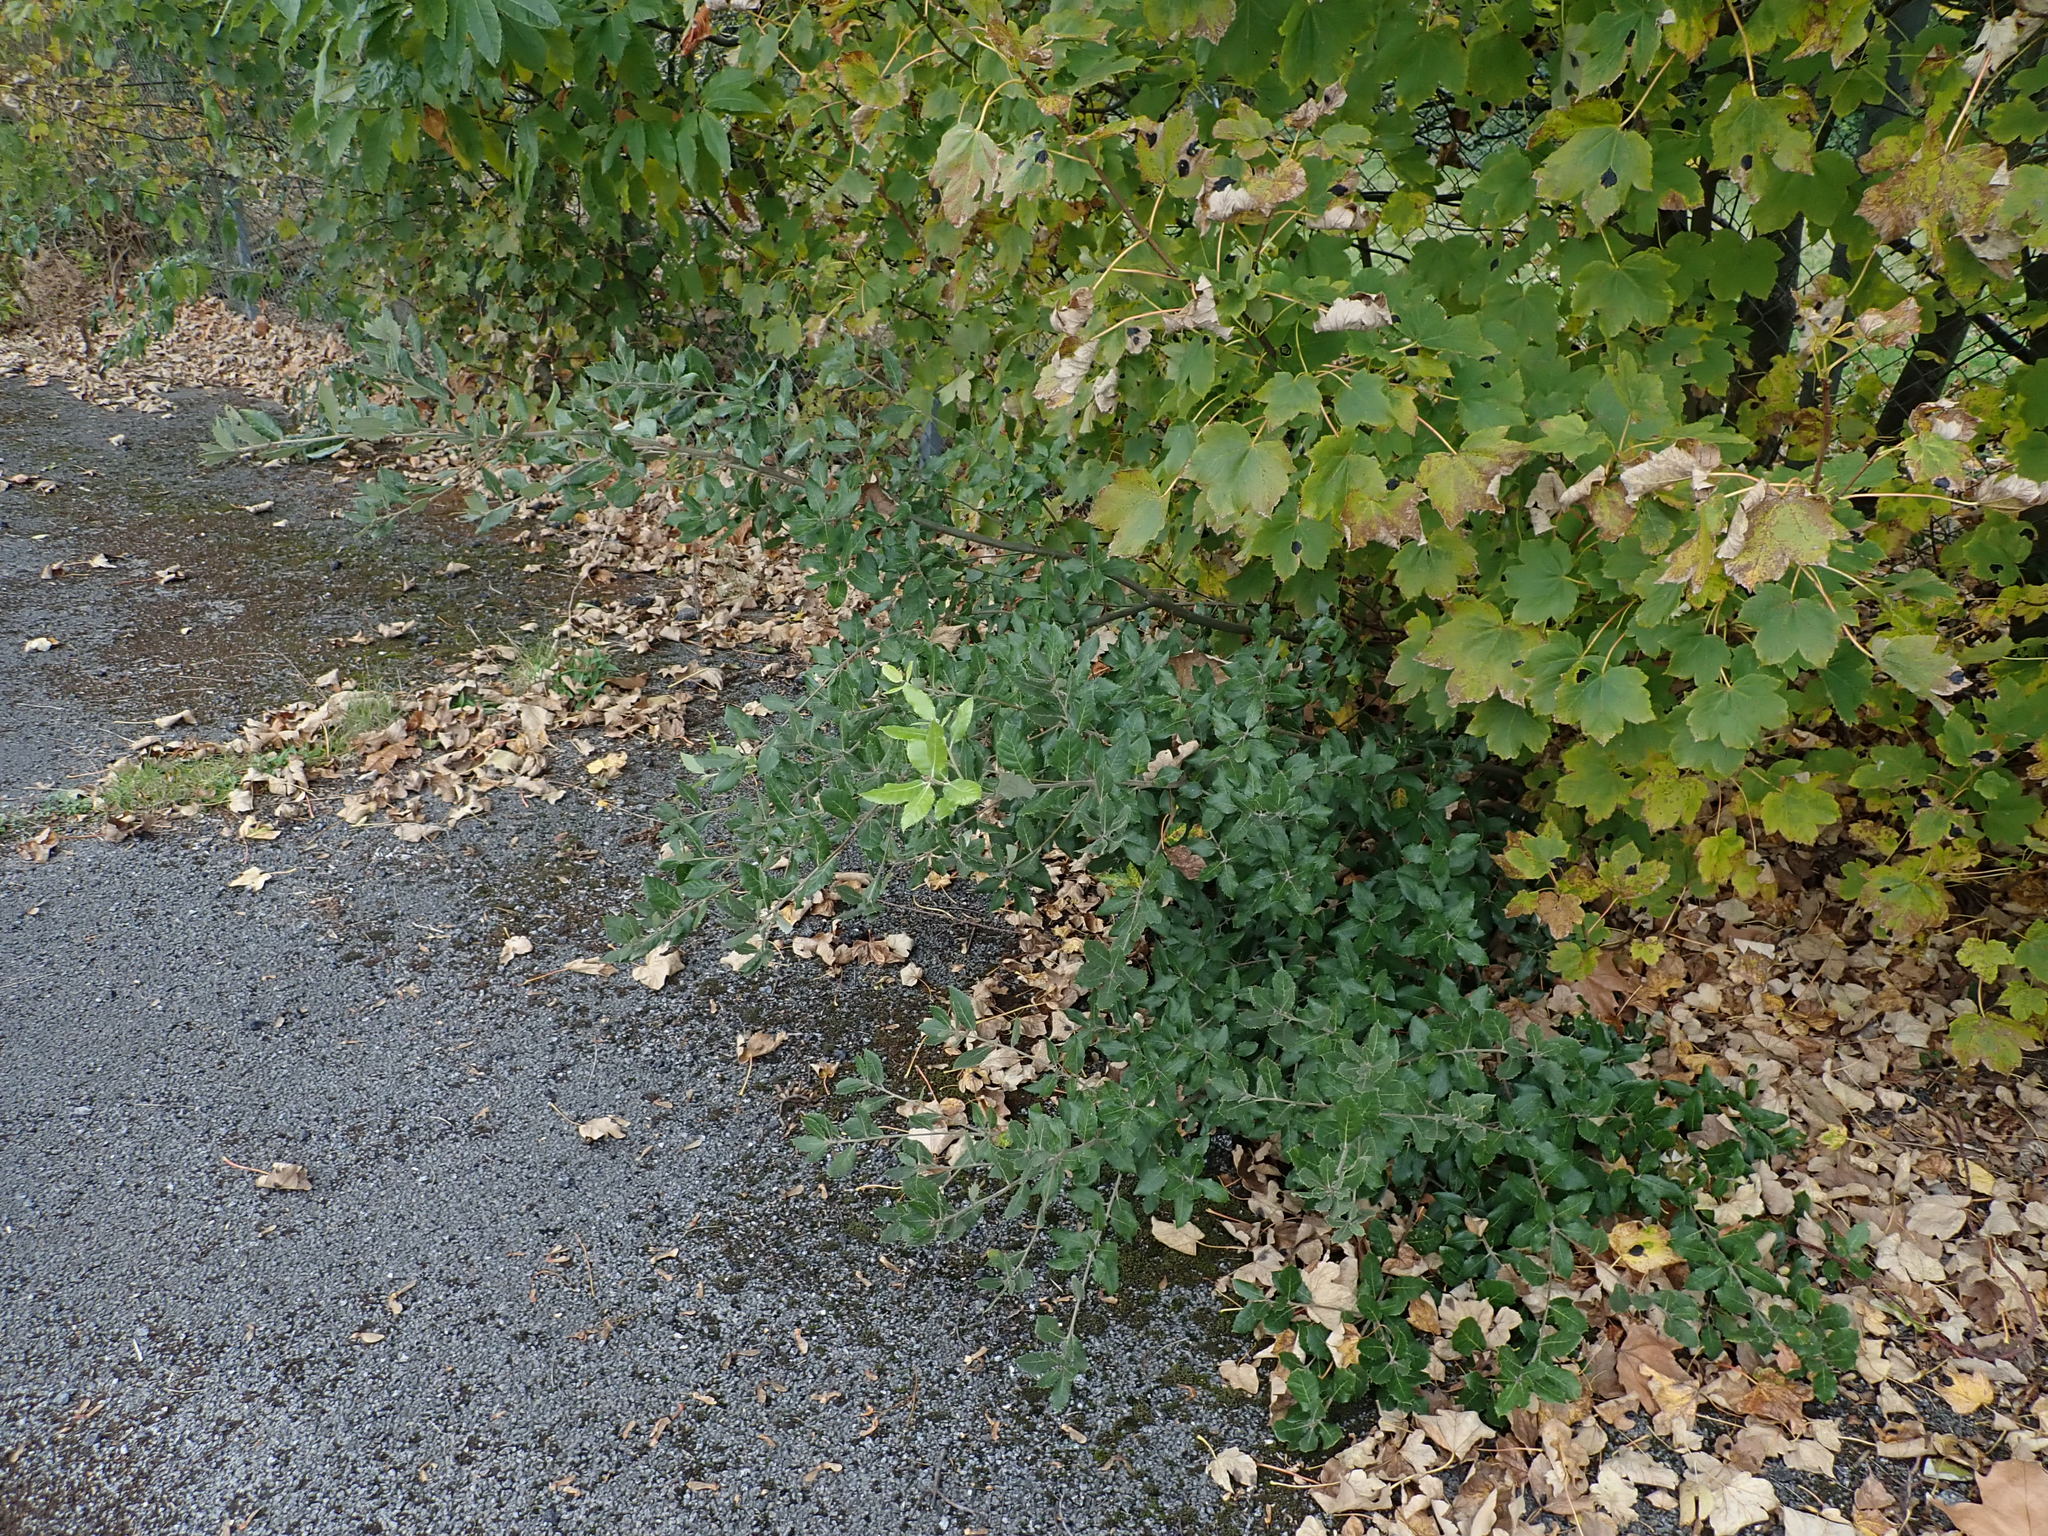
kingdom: Plantae
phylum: Tracheophyta
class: Magnoliopsida
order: Fagales
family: Fagaceae
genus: Quercus
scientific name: Quercus ilex
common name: Evergreen oak
